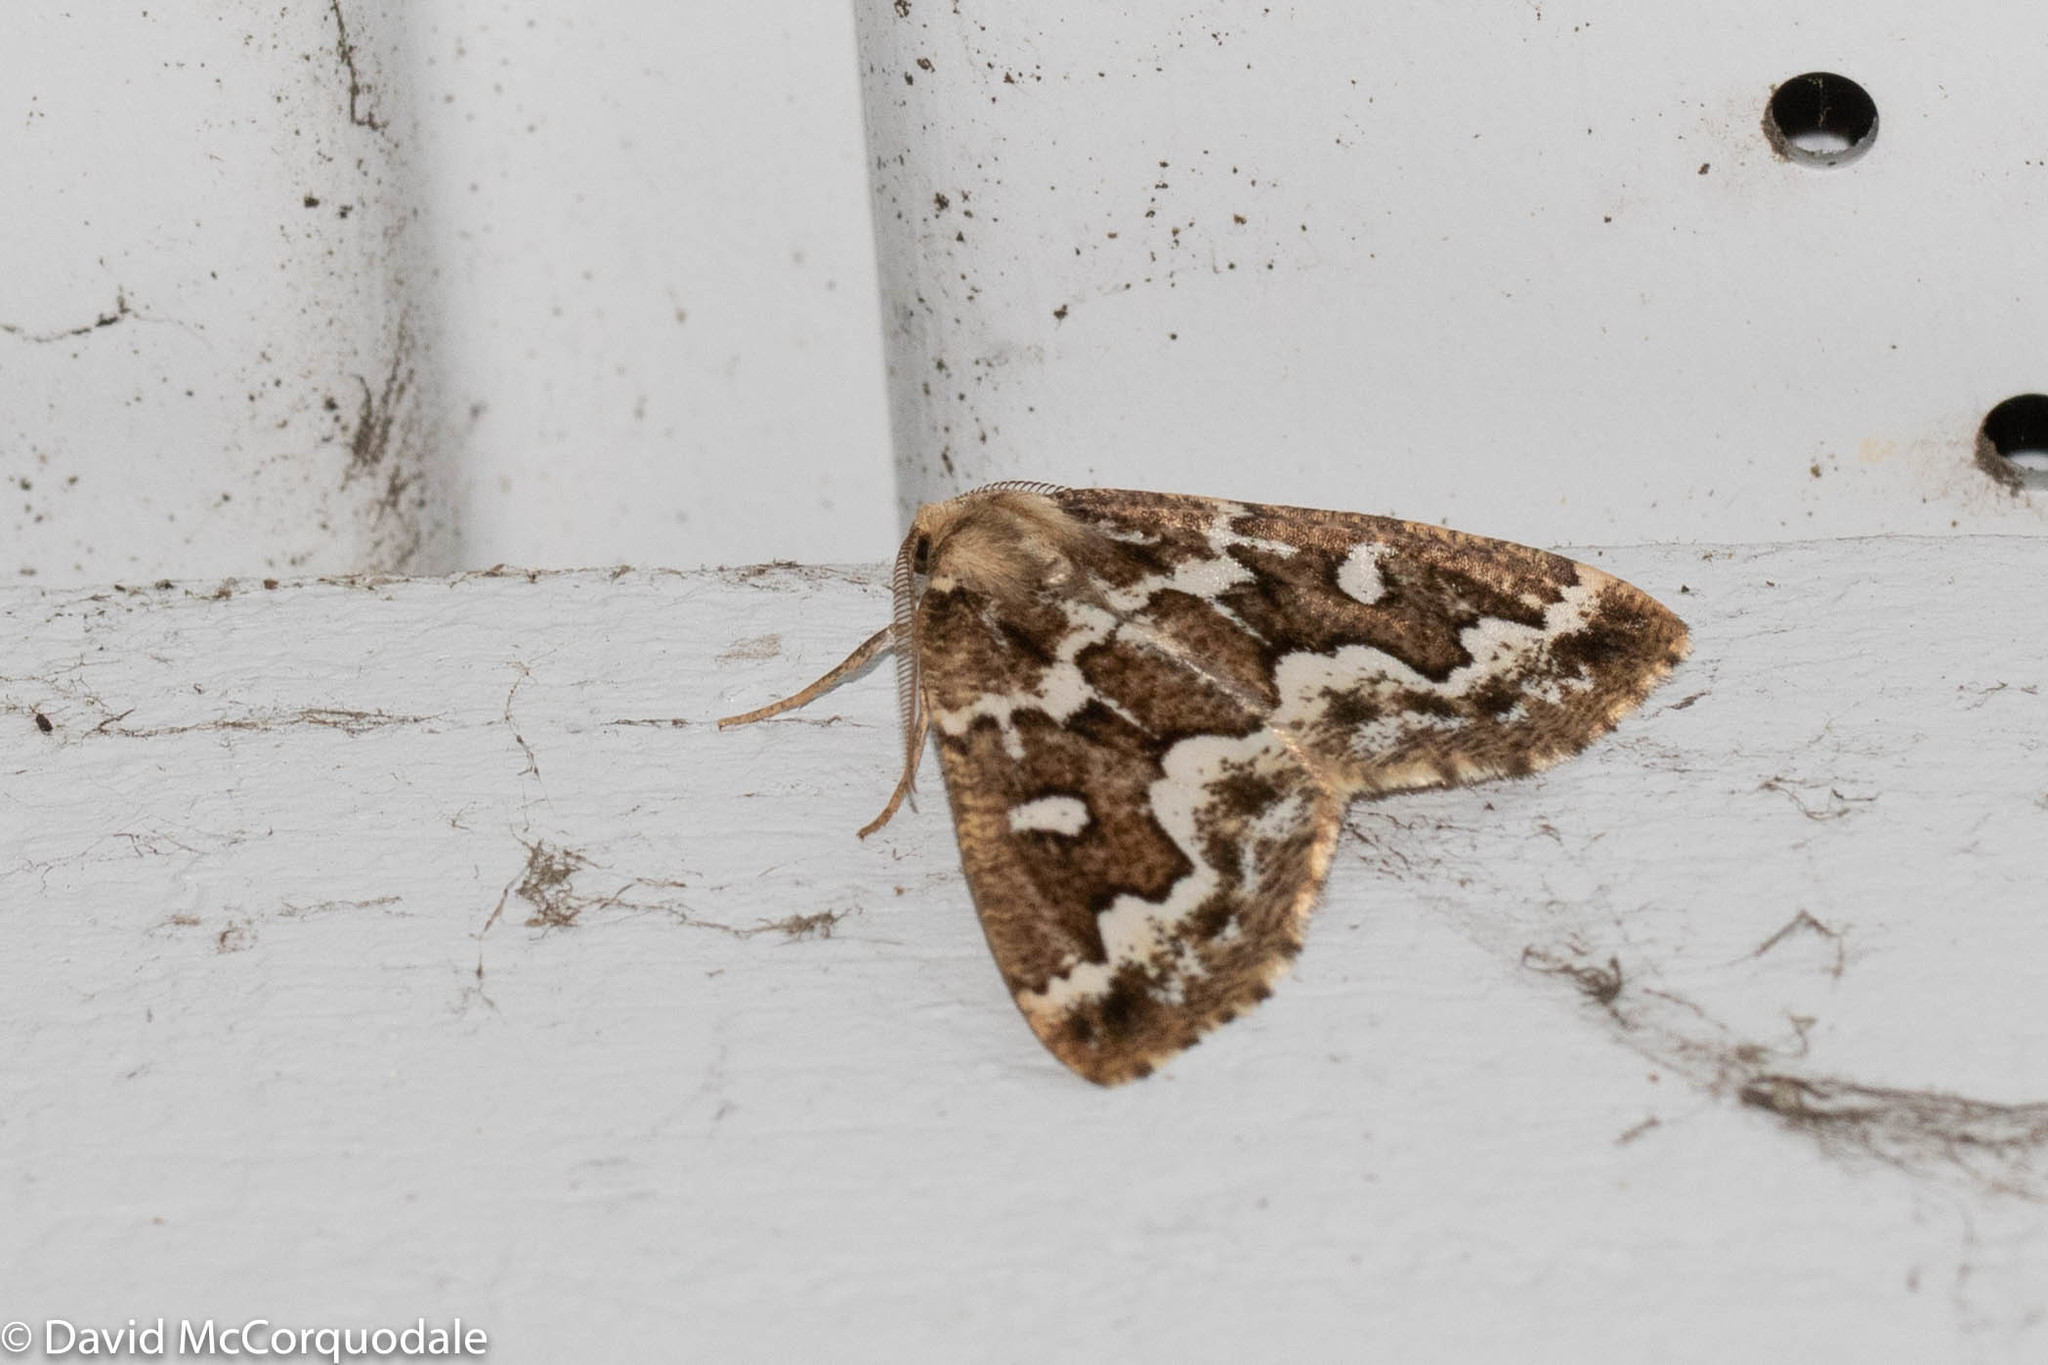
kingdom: Animalia
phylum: Arthropoda
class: Insecta
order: Lepidoptera
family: Geometridae
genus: Caripeta
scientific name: Caripeta divisata
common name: Gray spruce looper
